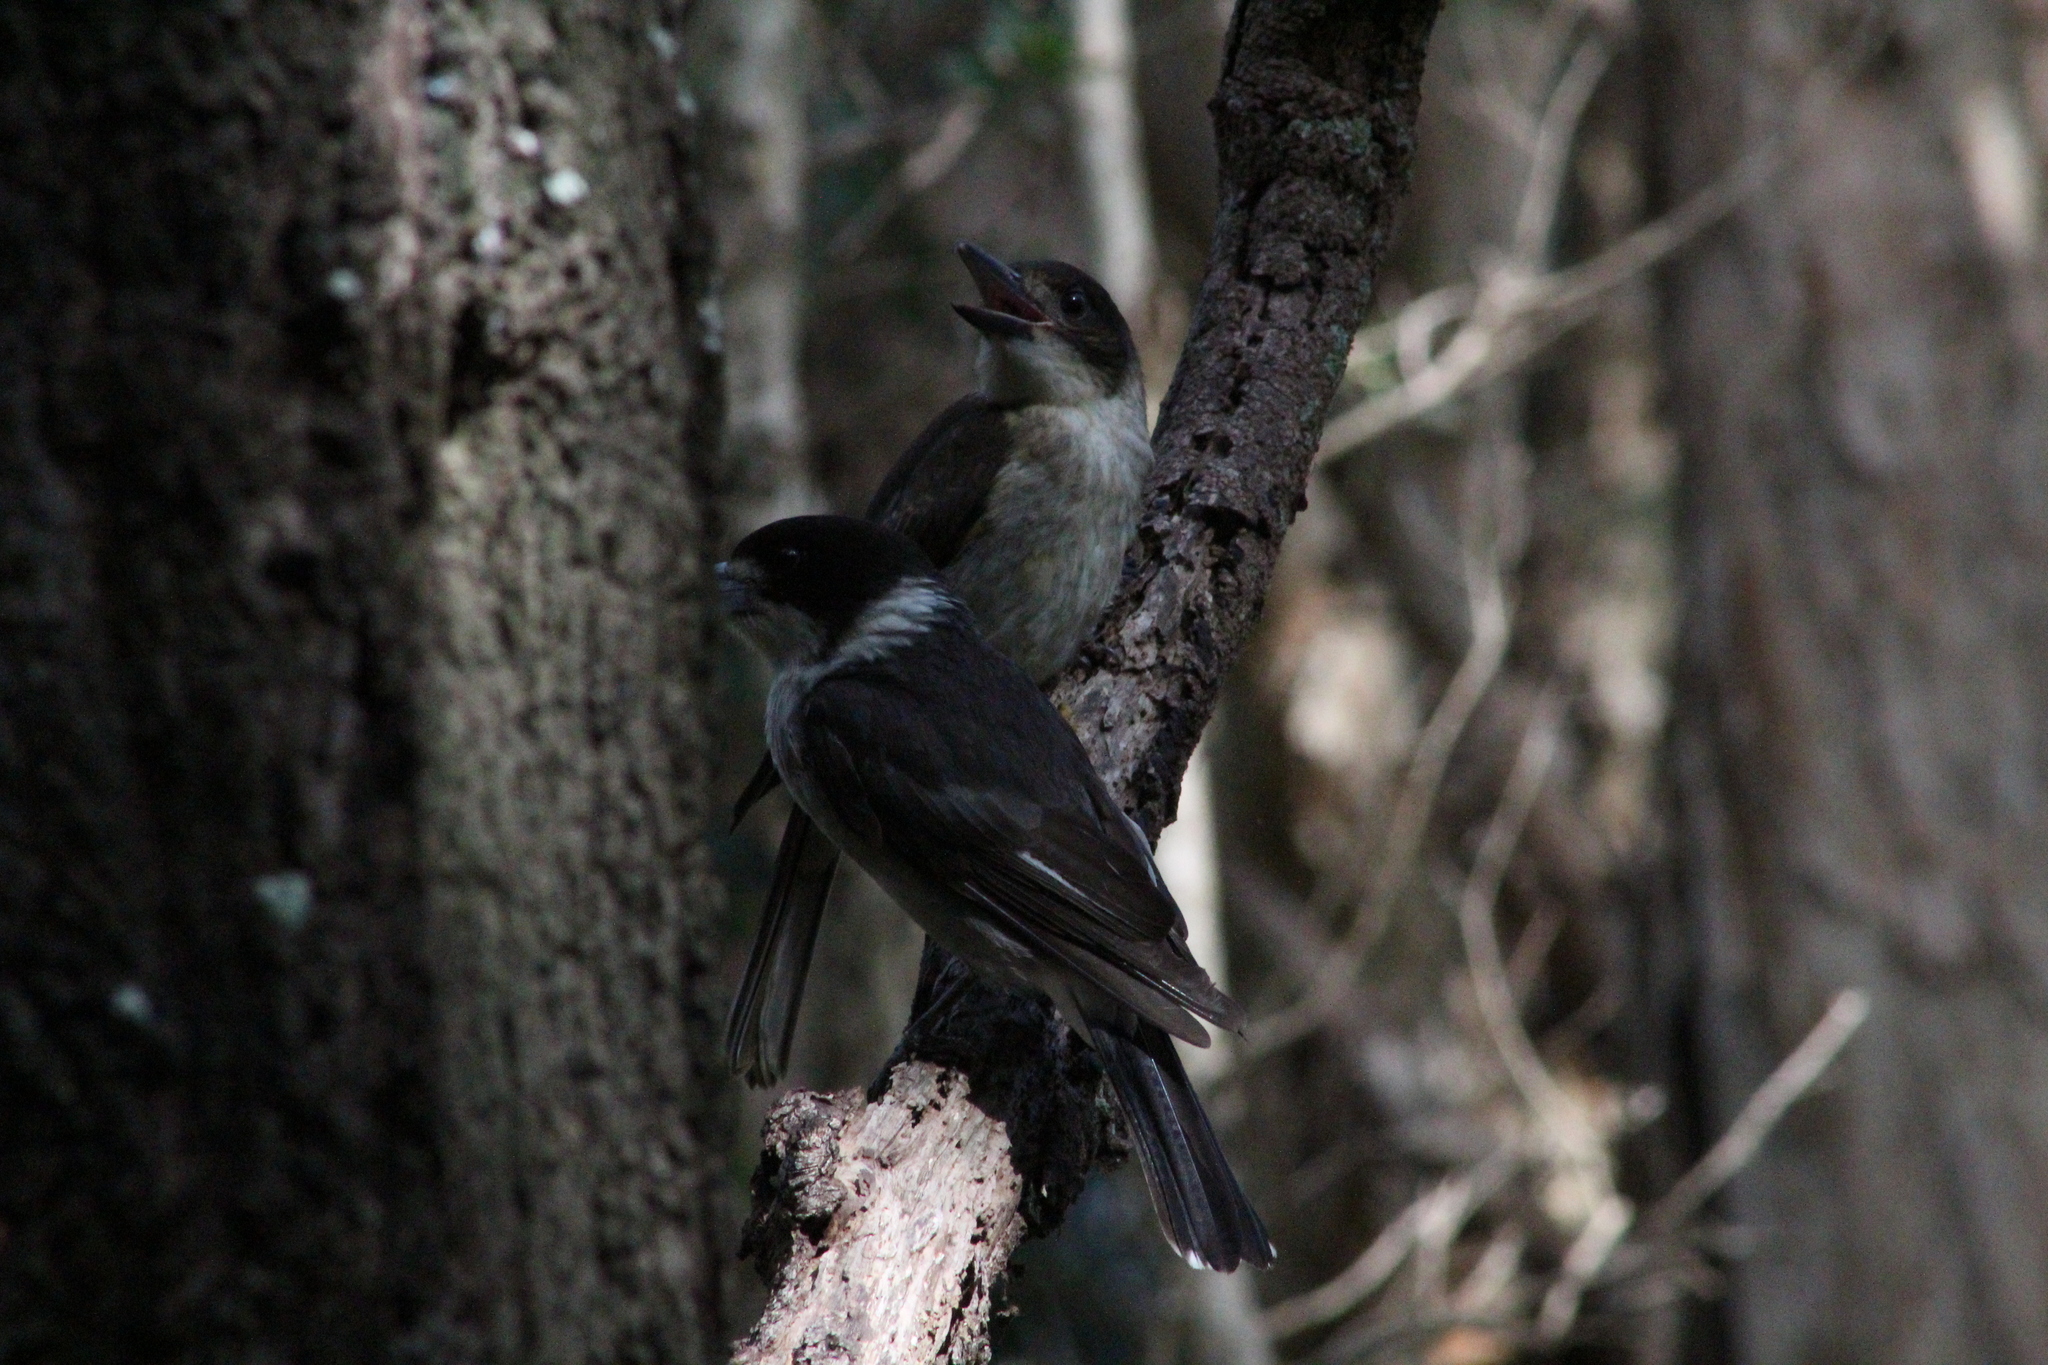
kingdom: Animalia
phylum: Chordata
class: Aves
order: Passeriformes
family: Cracticidae
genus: Cracticus
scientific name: Cracticus torquatus
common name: Grey butcherbird
